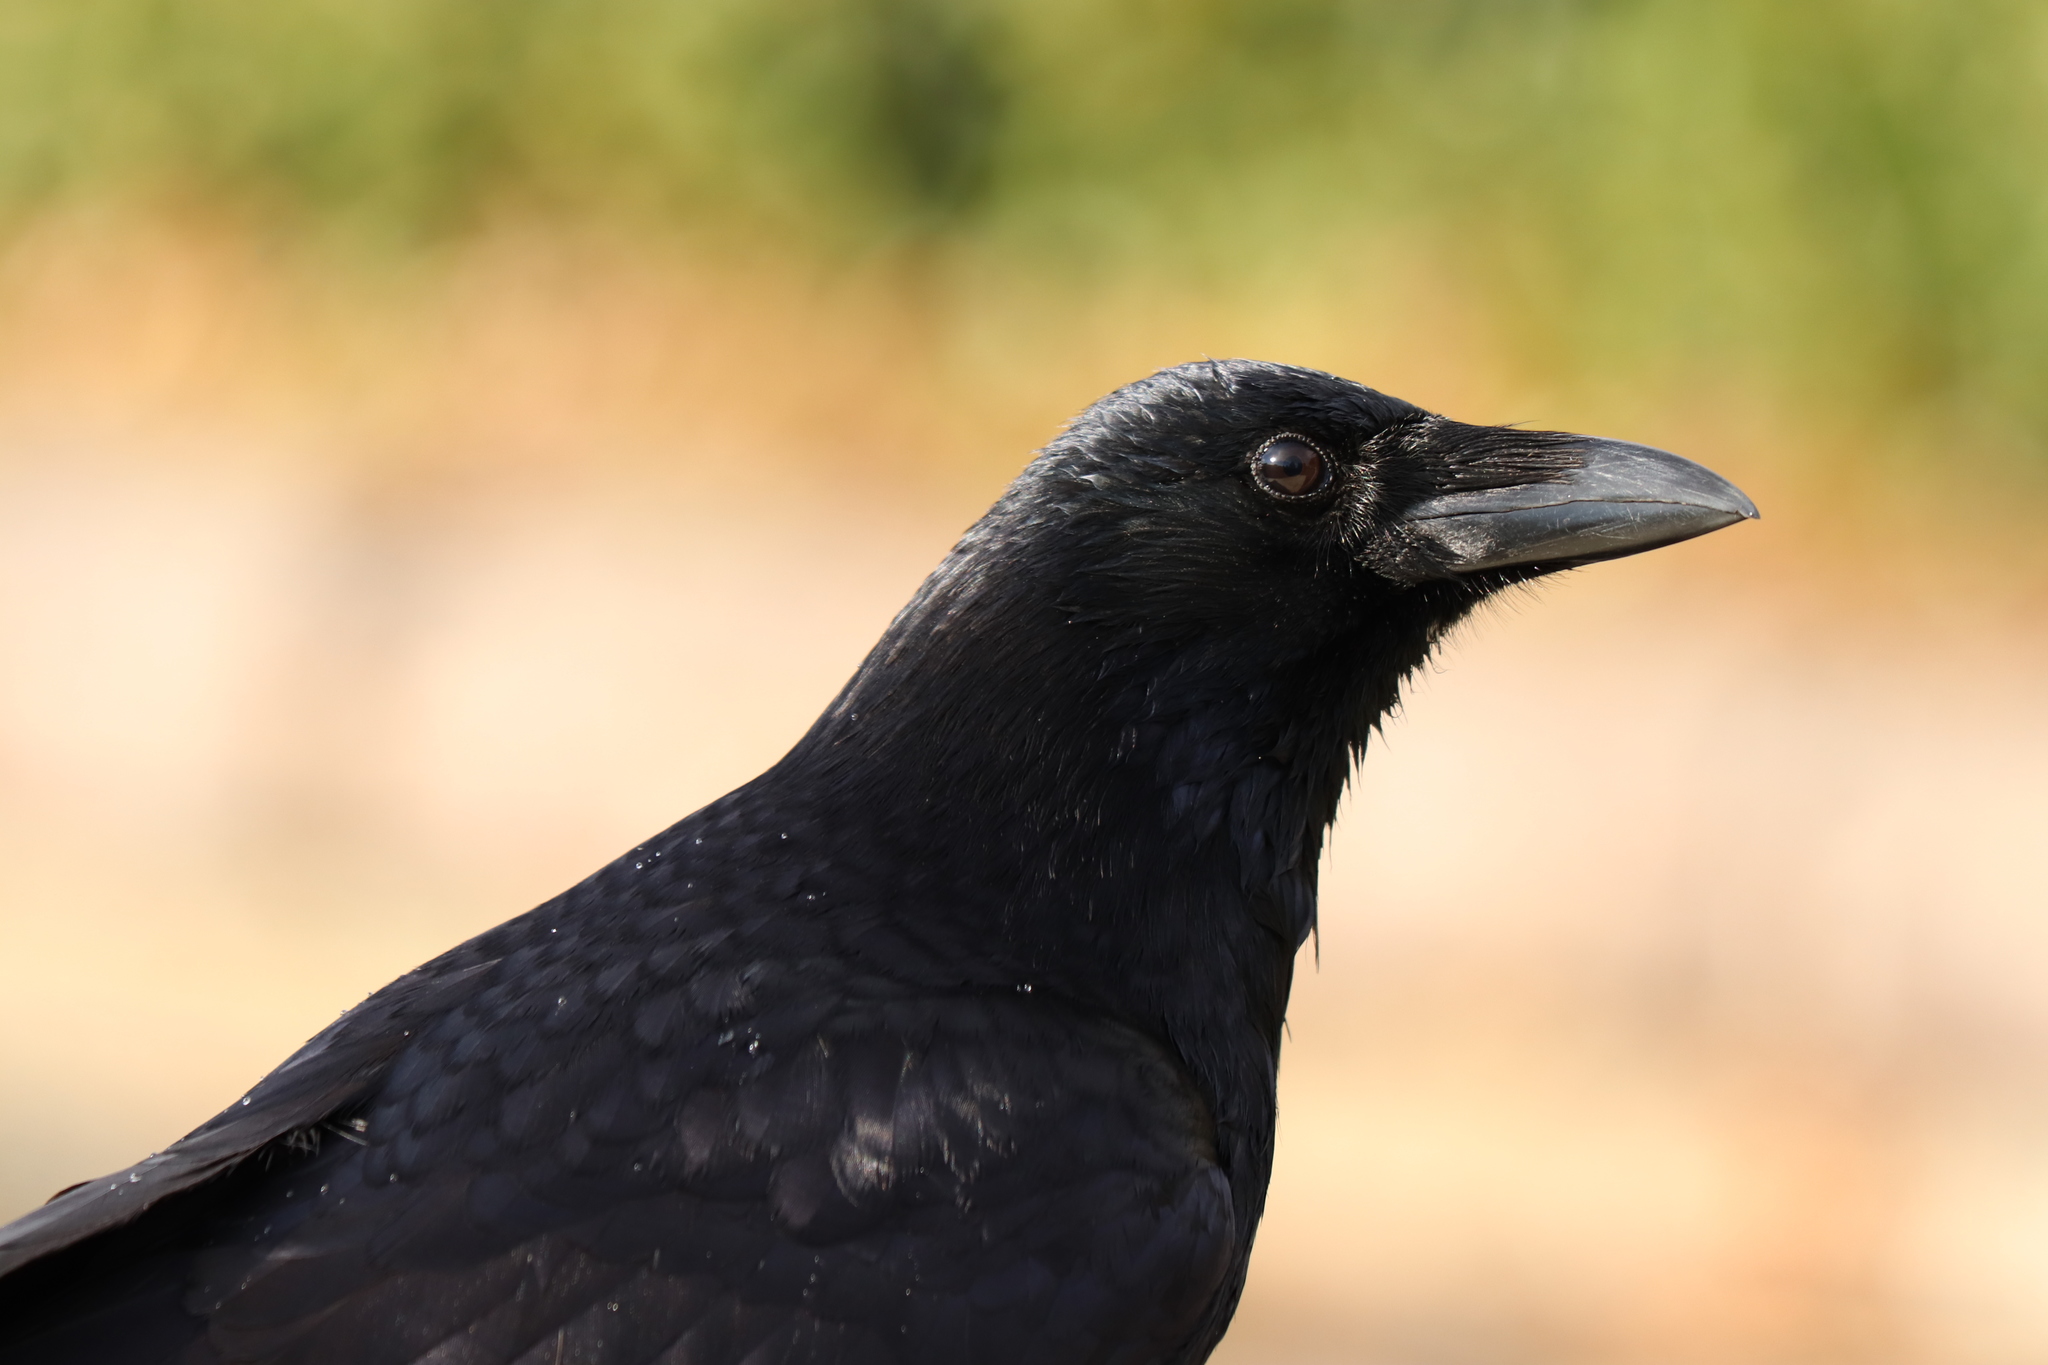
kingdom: Animalia
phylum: Chordata
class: Aves
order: Passeriformes
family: Corvidae
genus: Corvus
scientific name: Corvus corone
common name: Carrion crow
